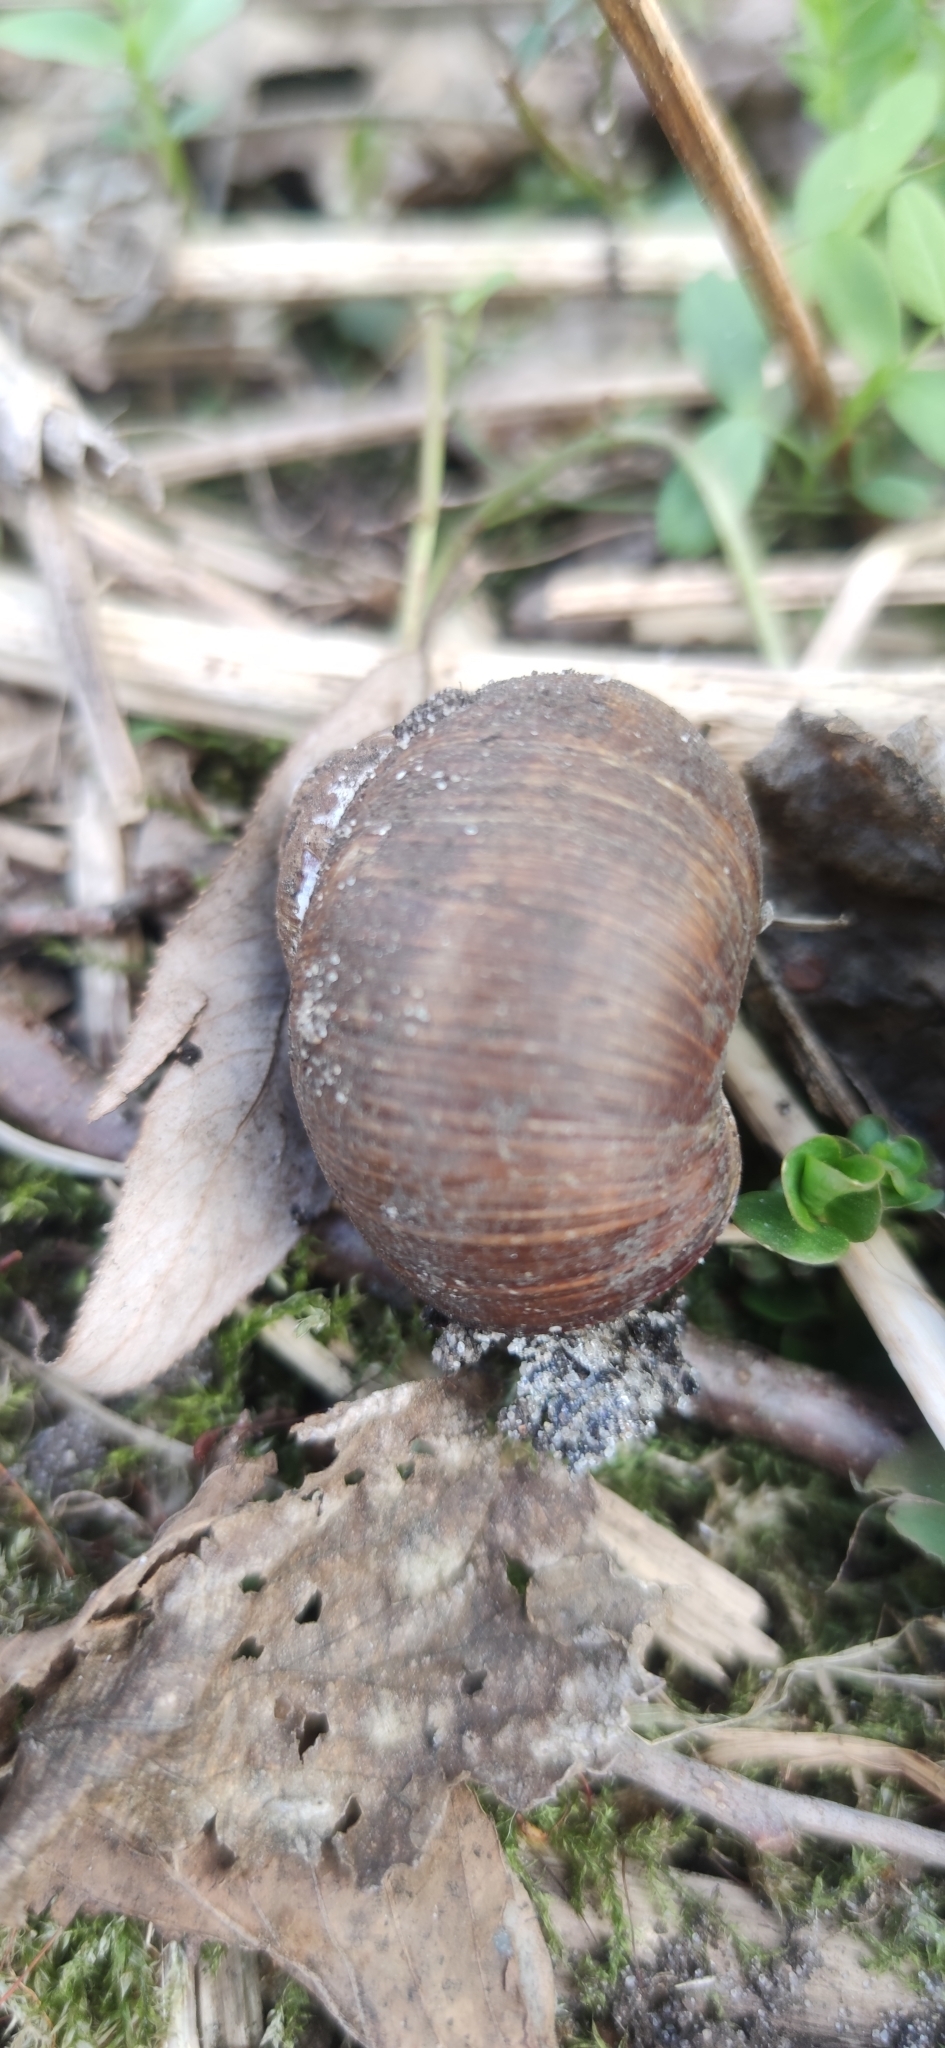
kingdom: Animalia
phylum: Mollusca
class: Gastropoda
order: Stylommatophora
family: Helicidae
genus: Helix
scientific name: Helix pomatia
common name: Roman snail
